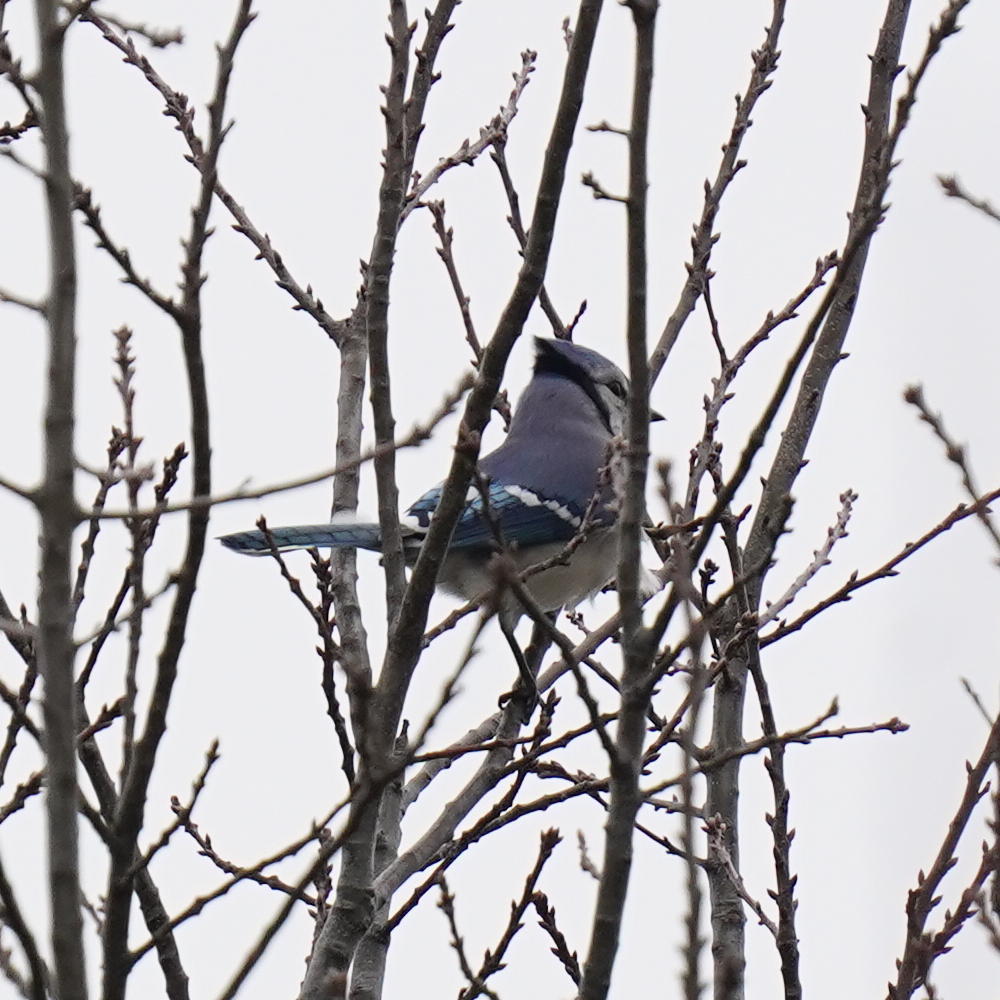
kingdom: Animalia
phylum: Chordata
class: Aves
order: Passeriformes
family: Corvidae
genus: Cyanocitta
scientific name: Cyanocitta cristata
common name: Blue jay
